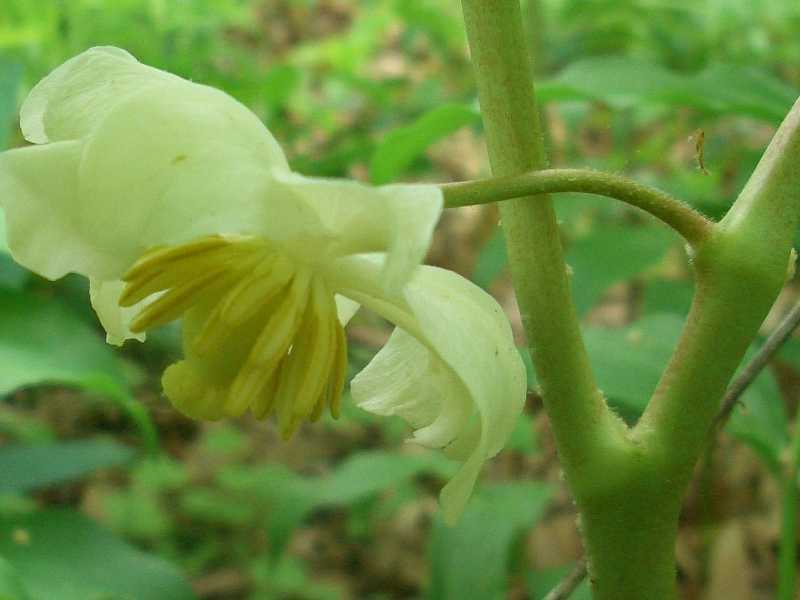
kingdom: Plantae
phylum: Tracheophyta
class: Magnoliopsida
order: Ranunculales
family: Berberidaceae
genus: Podophyllum
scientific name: Podophyllum peltatum
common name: Wild mandrake
